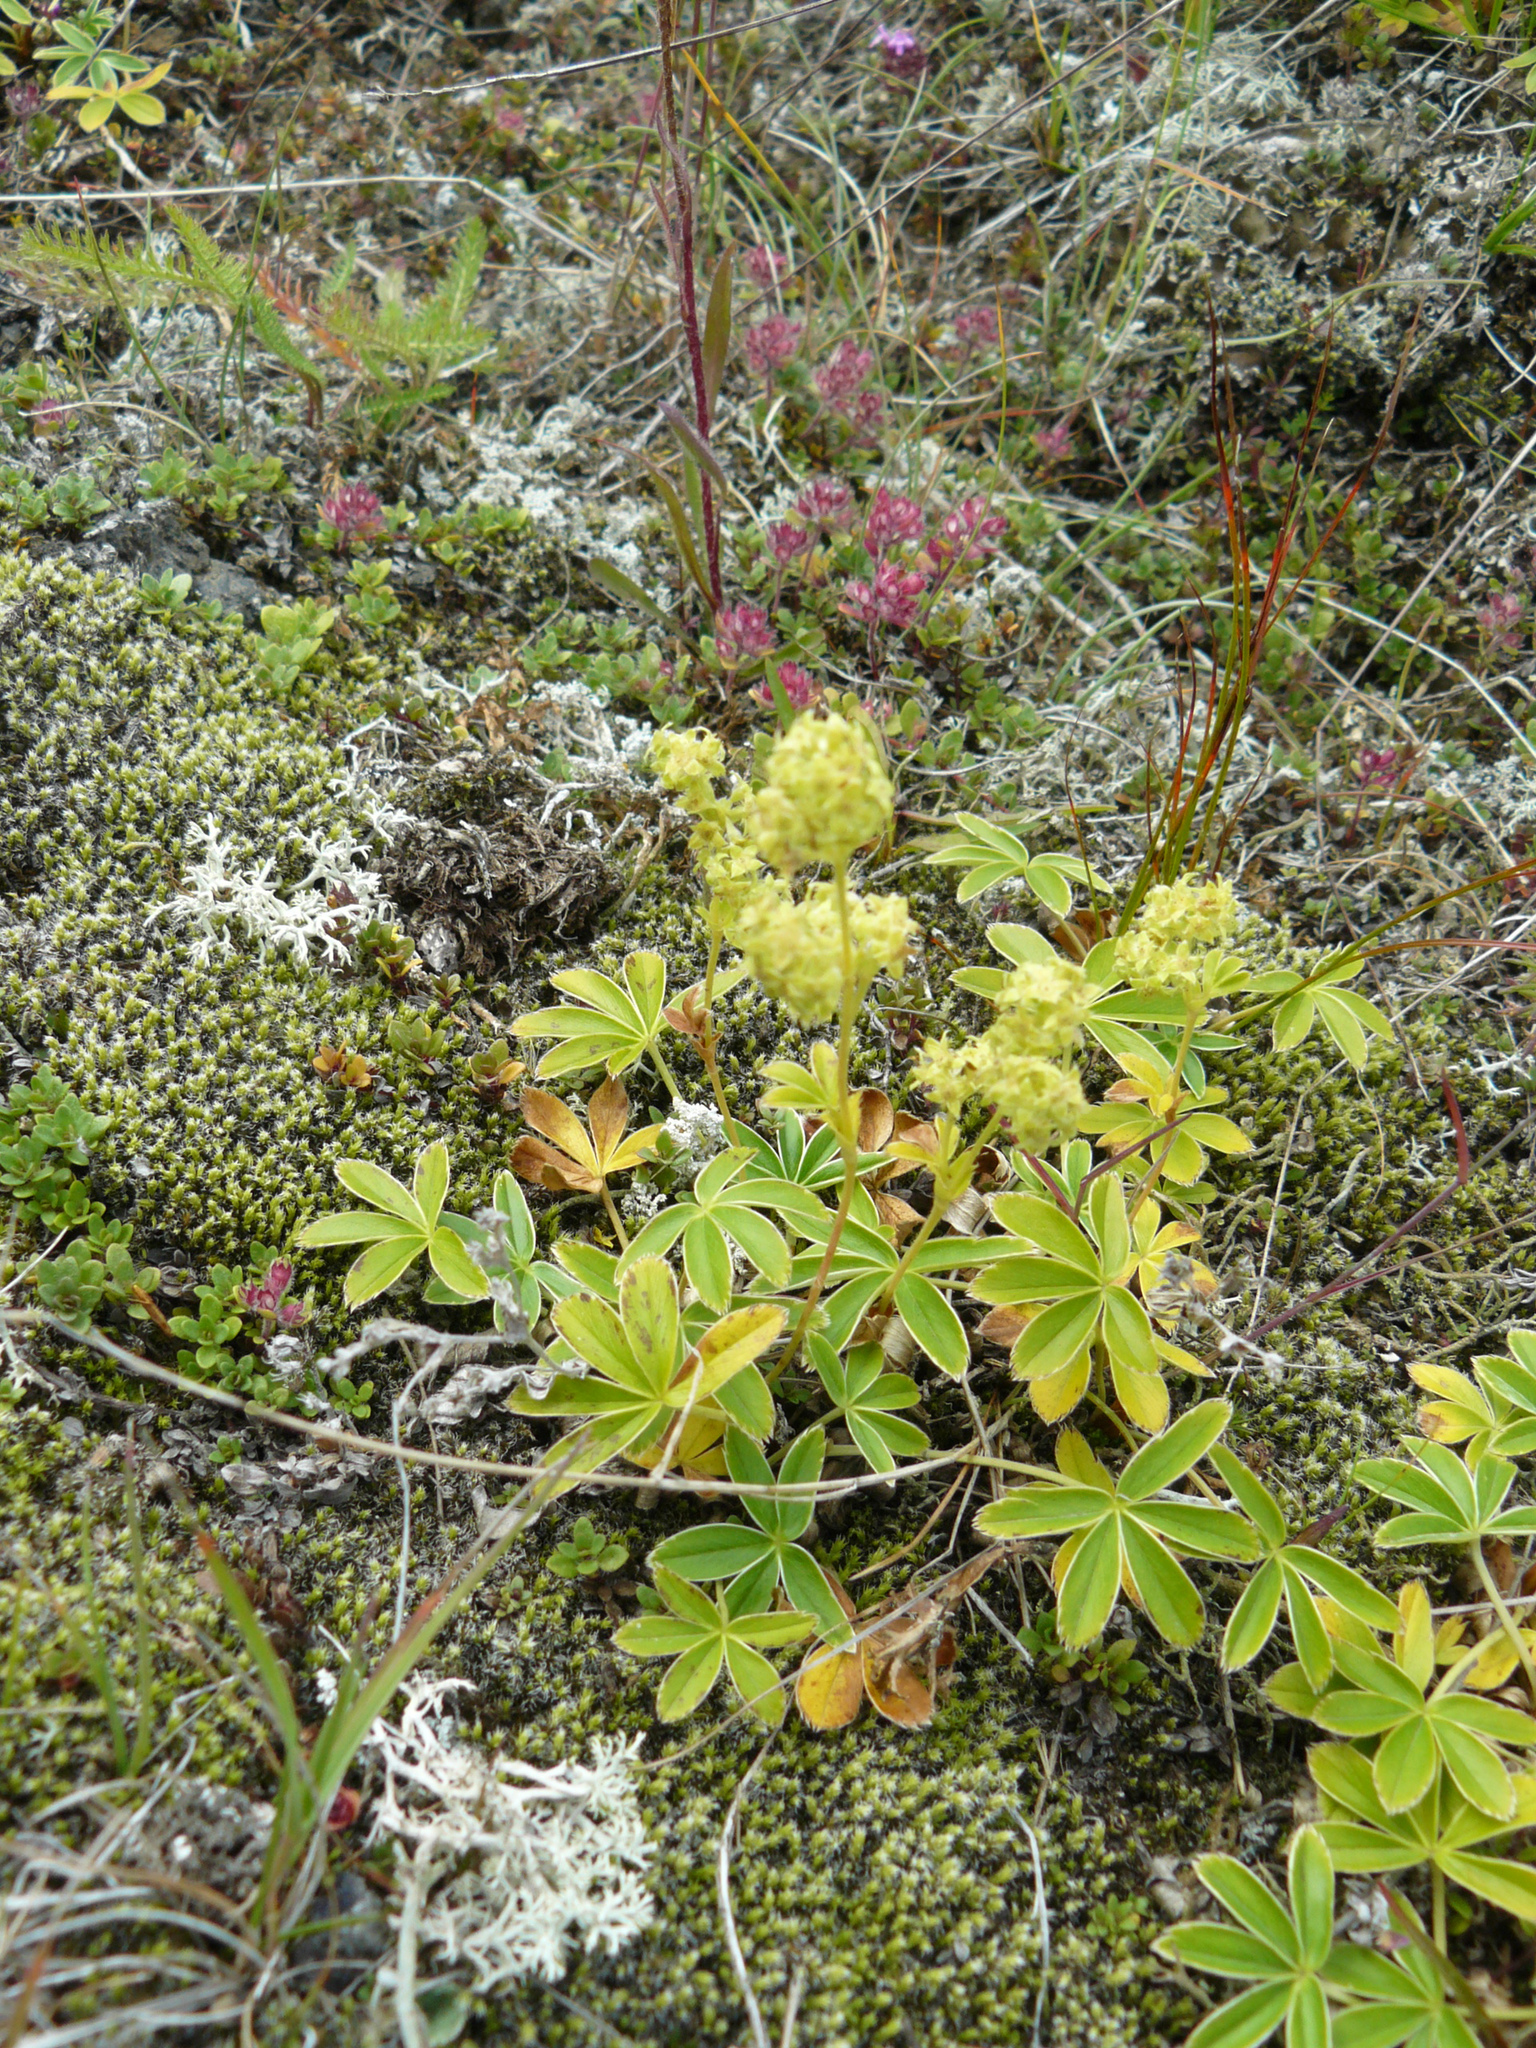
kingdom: Plantae
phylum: Tracheophyta
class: Magnoliopsida
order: Rosales
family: Rosaceae
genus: Alchemilla
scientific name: Alchemilla alpina
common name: Alpine lady's-mantle
